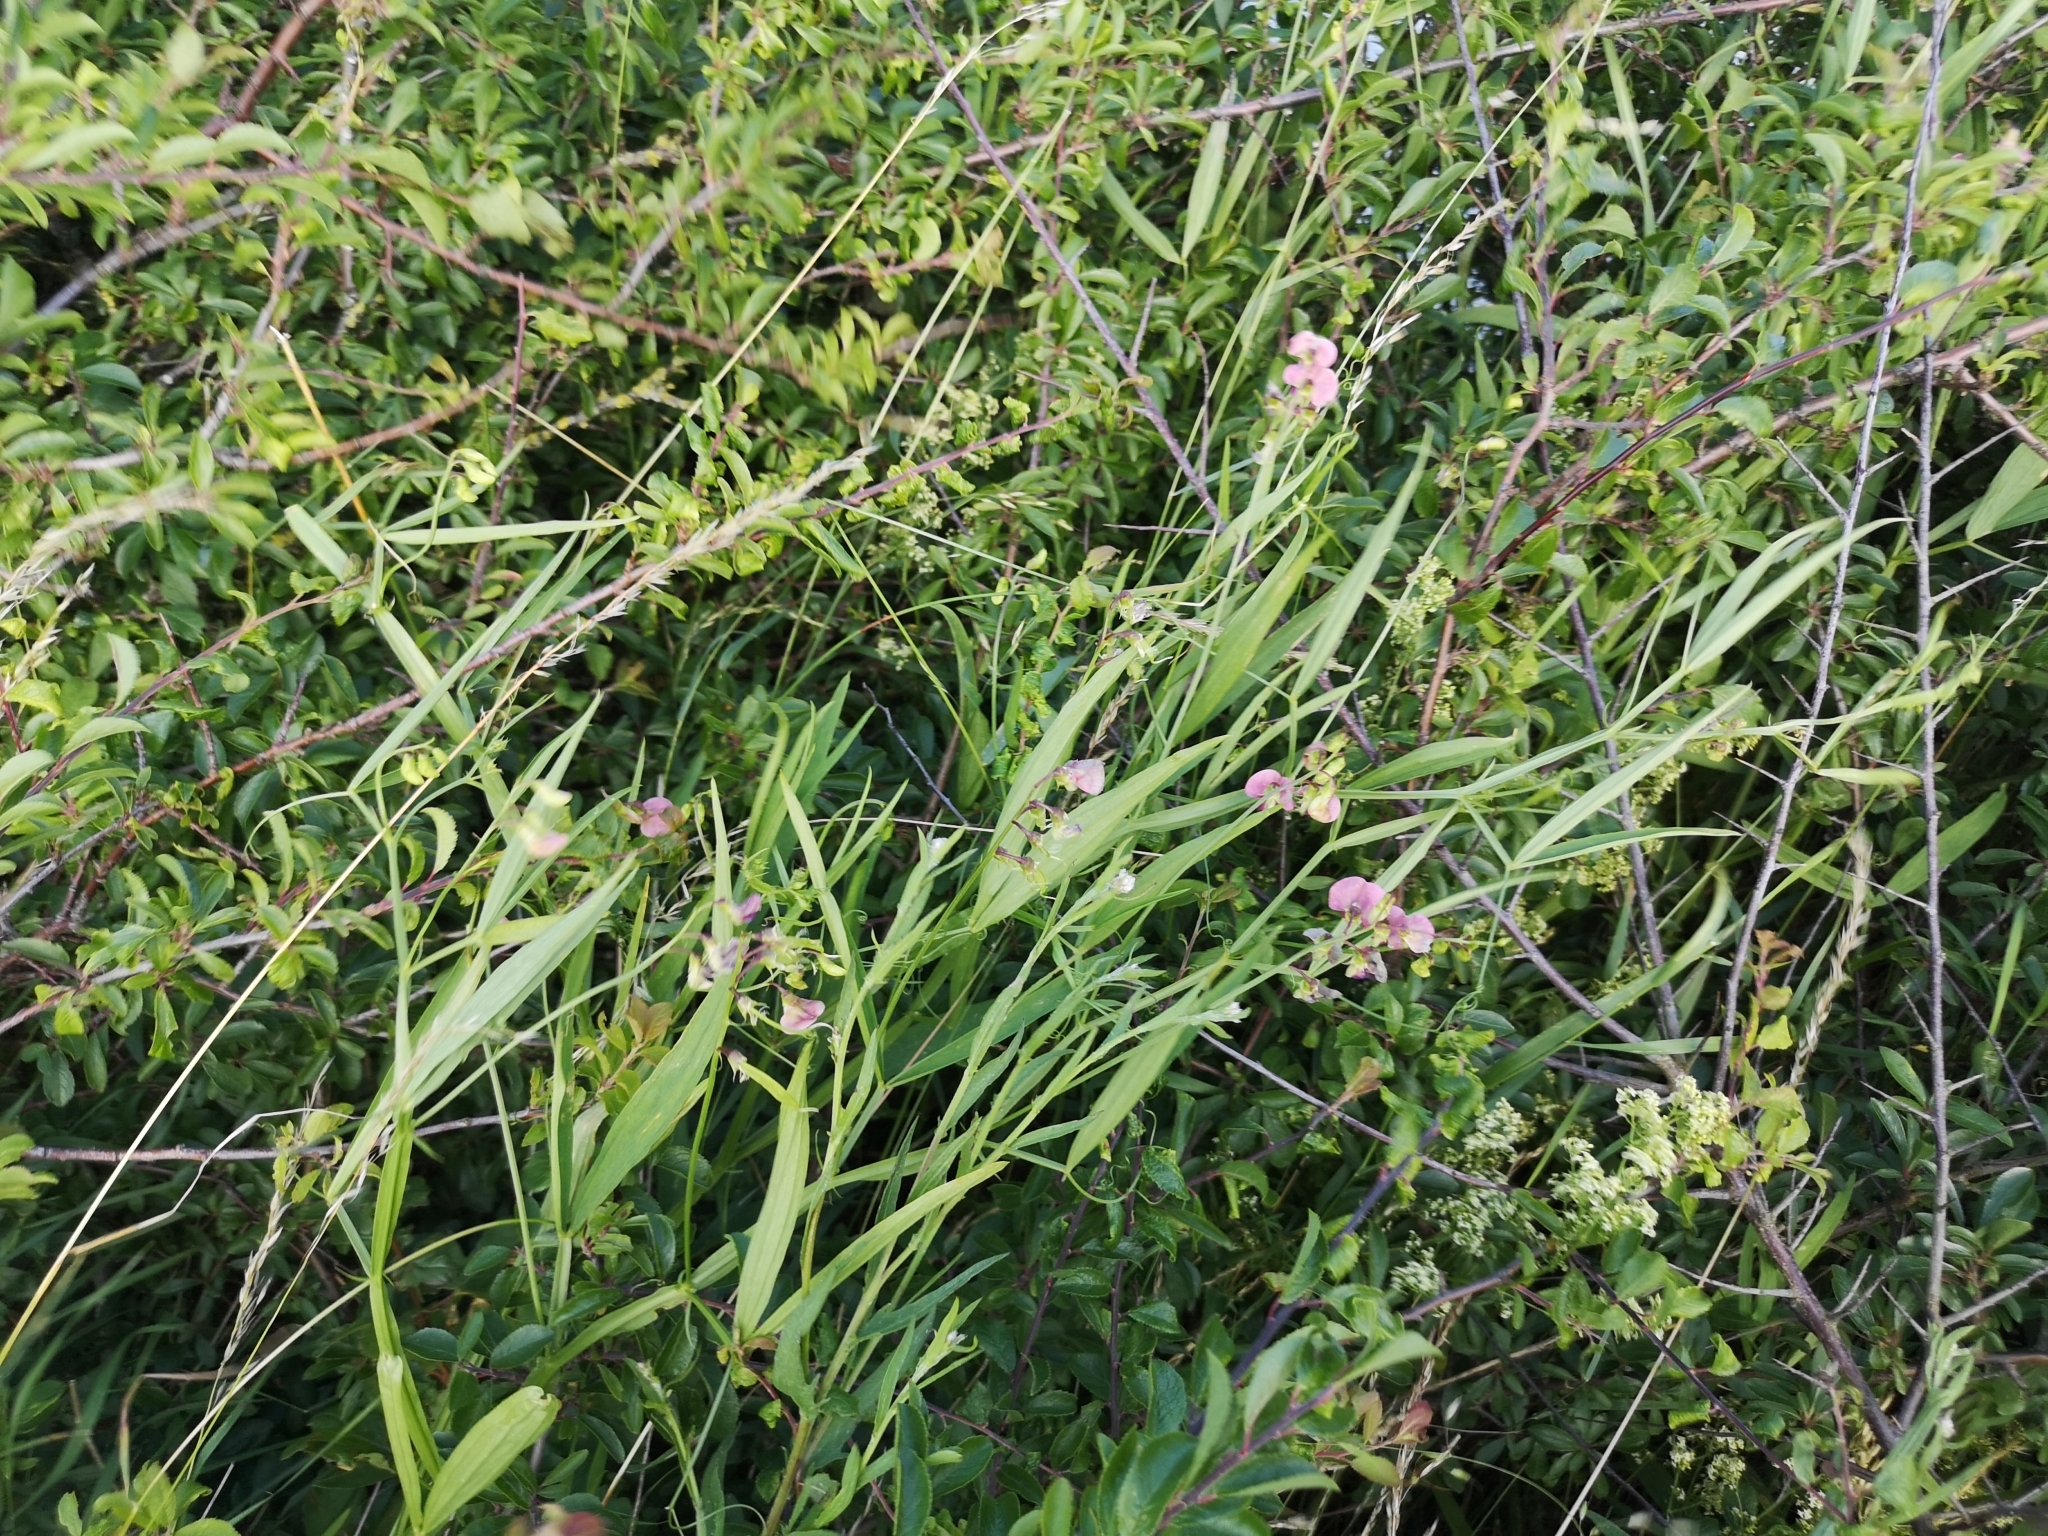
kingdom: Plantae
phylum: Tracheophyta
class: Magnoliopsida
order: Fabales
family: Fabaceae
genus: Lathyrus
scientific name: Lathyrus sylvestris
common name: Flat pea
